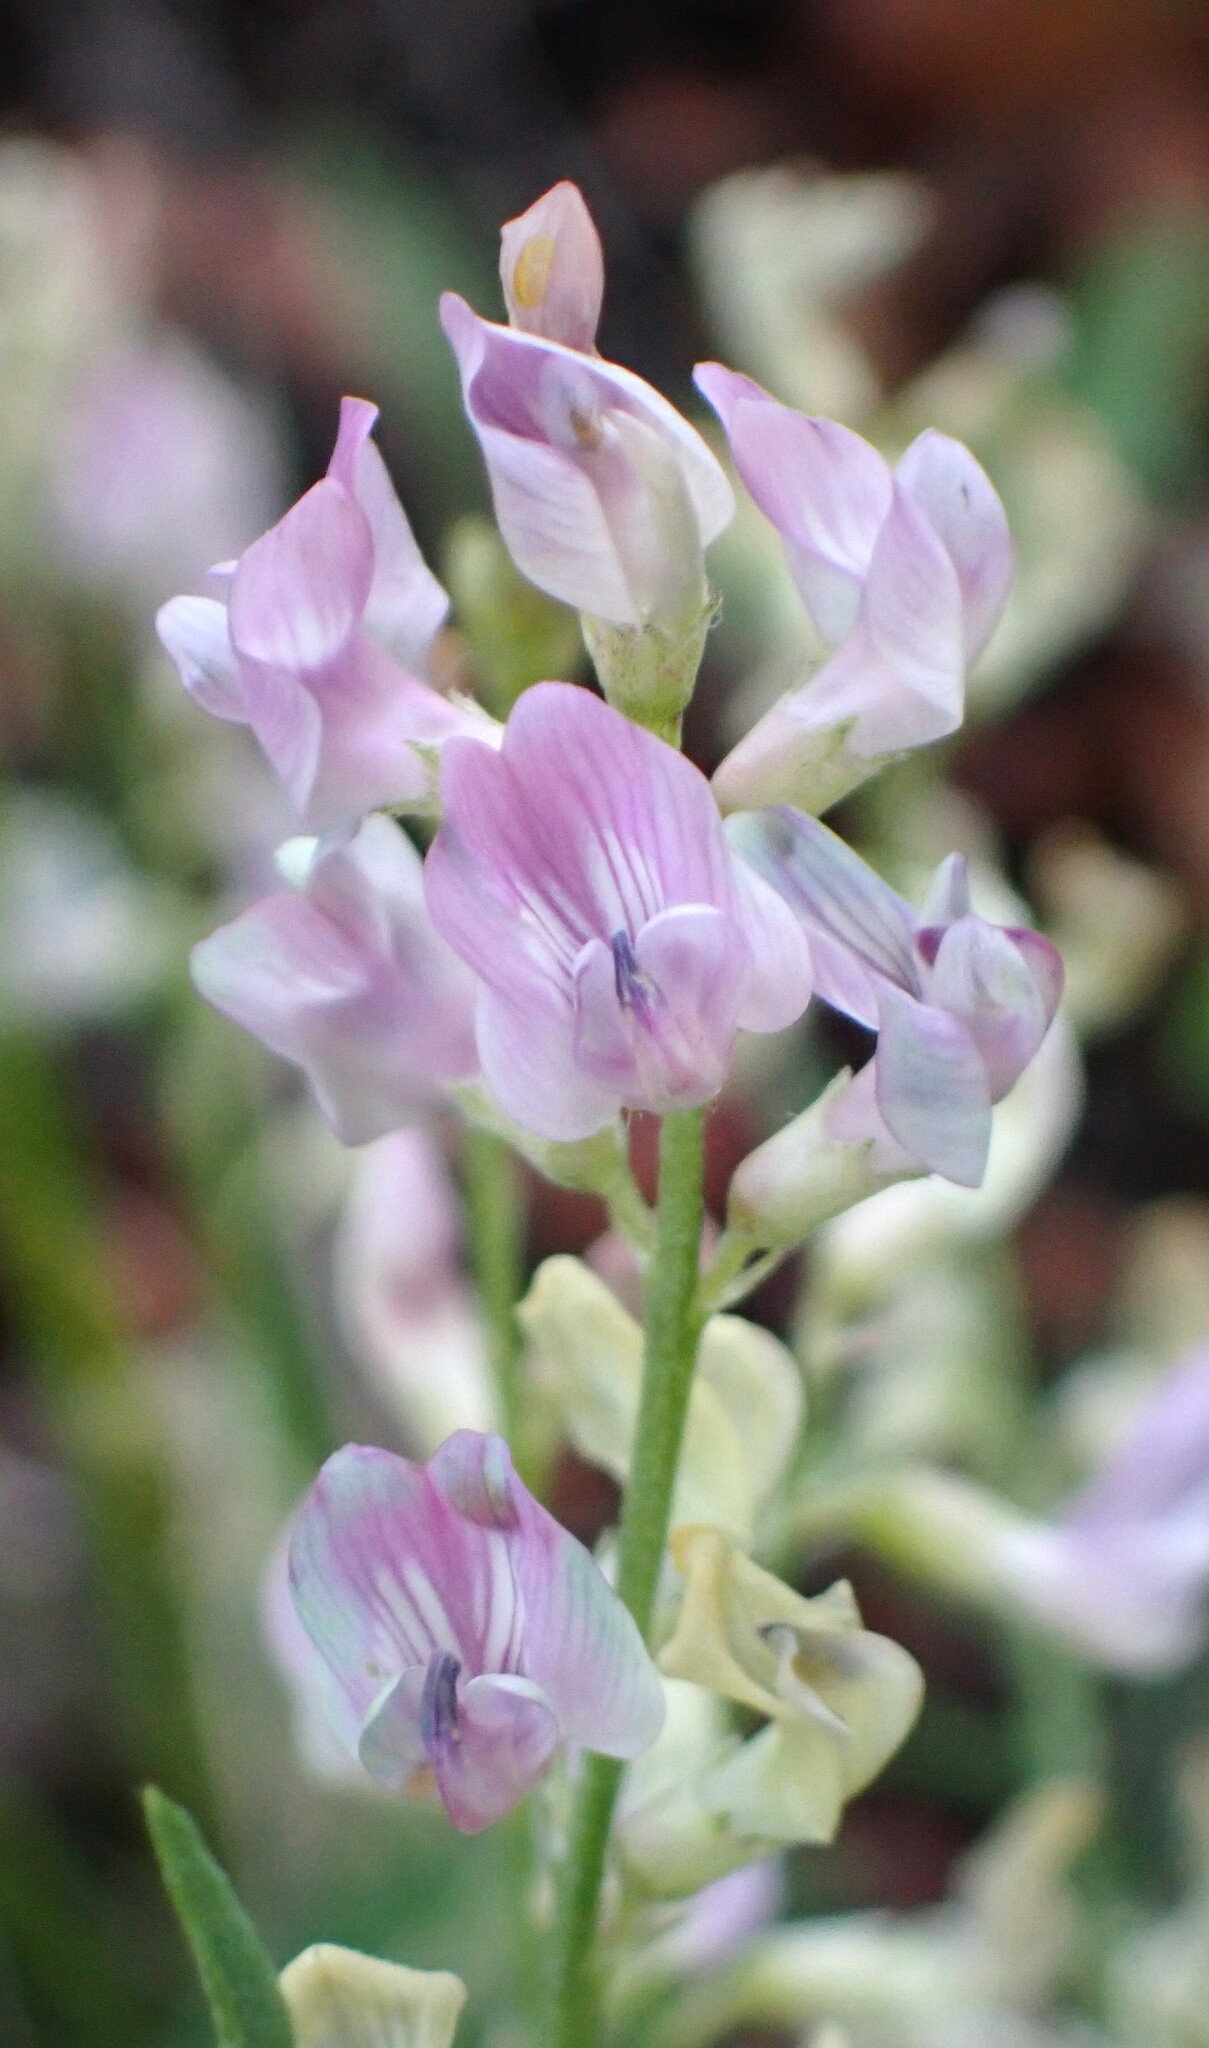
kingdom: Plantae
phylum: Tracheophyta
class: Magnoliopsida
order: Fabales
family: Fabaceae
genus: Astragalus
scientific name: Astragalus miser
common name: Timber milkvetch
